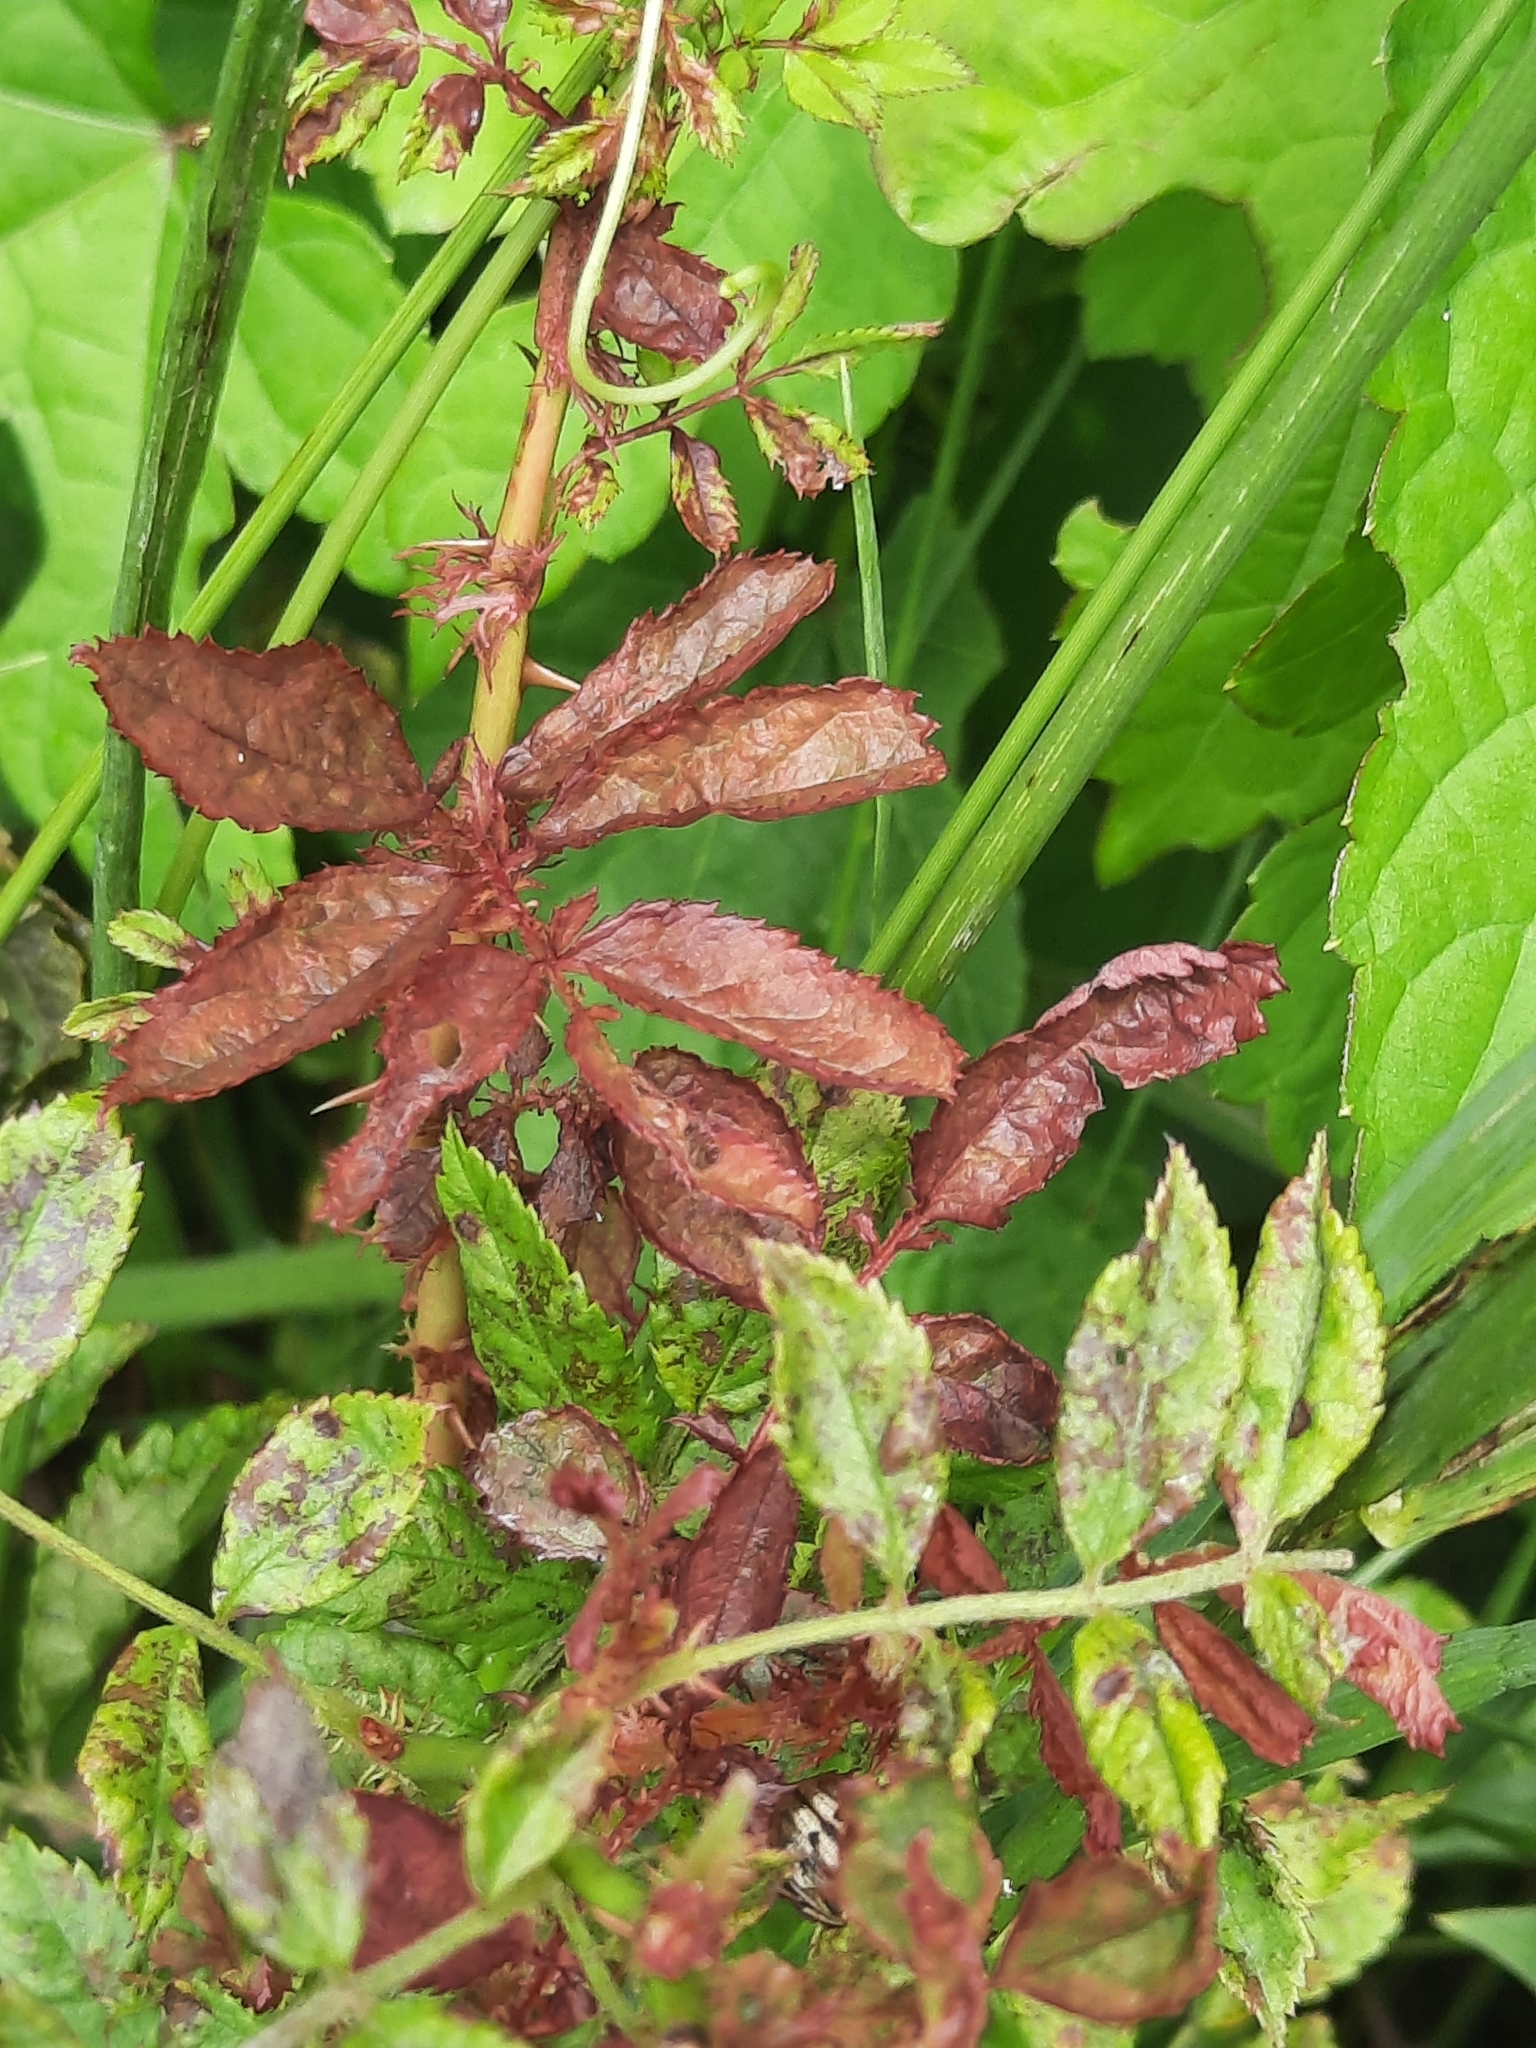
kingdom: Viruses
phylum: Negarnaviricota
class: Ellioviricetes
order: Bunyavirales
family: Fimoviridae
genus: Emaravirus
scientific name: Emaravirus rosae
